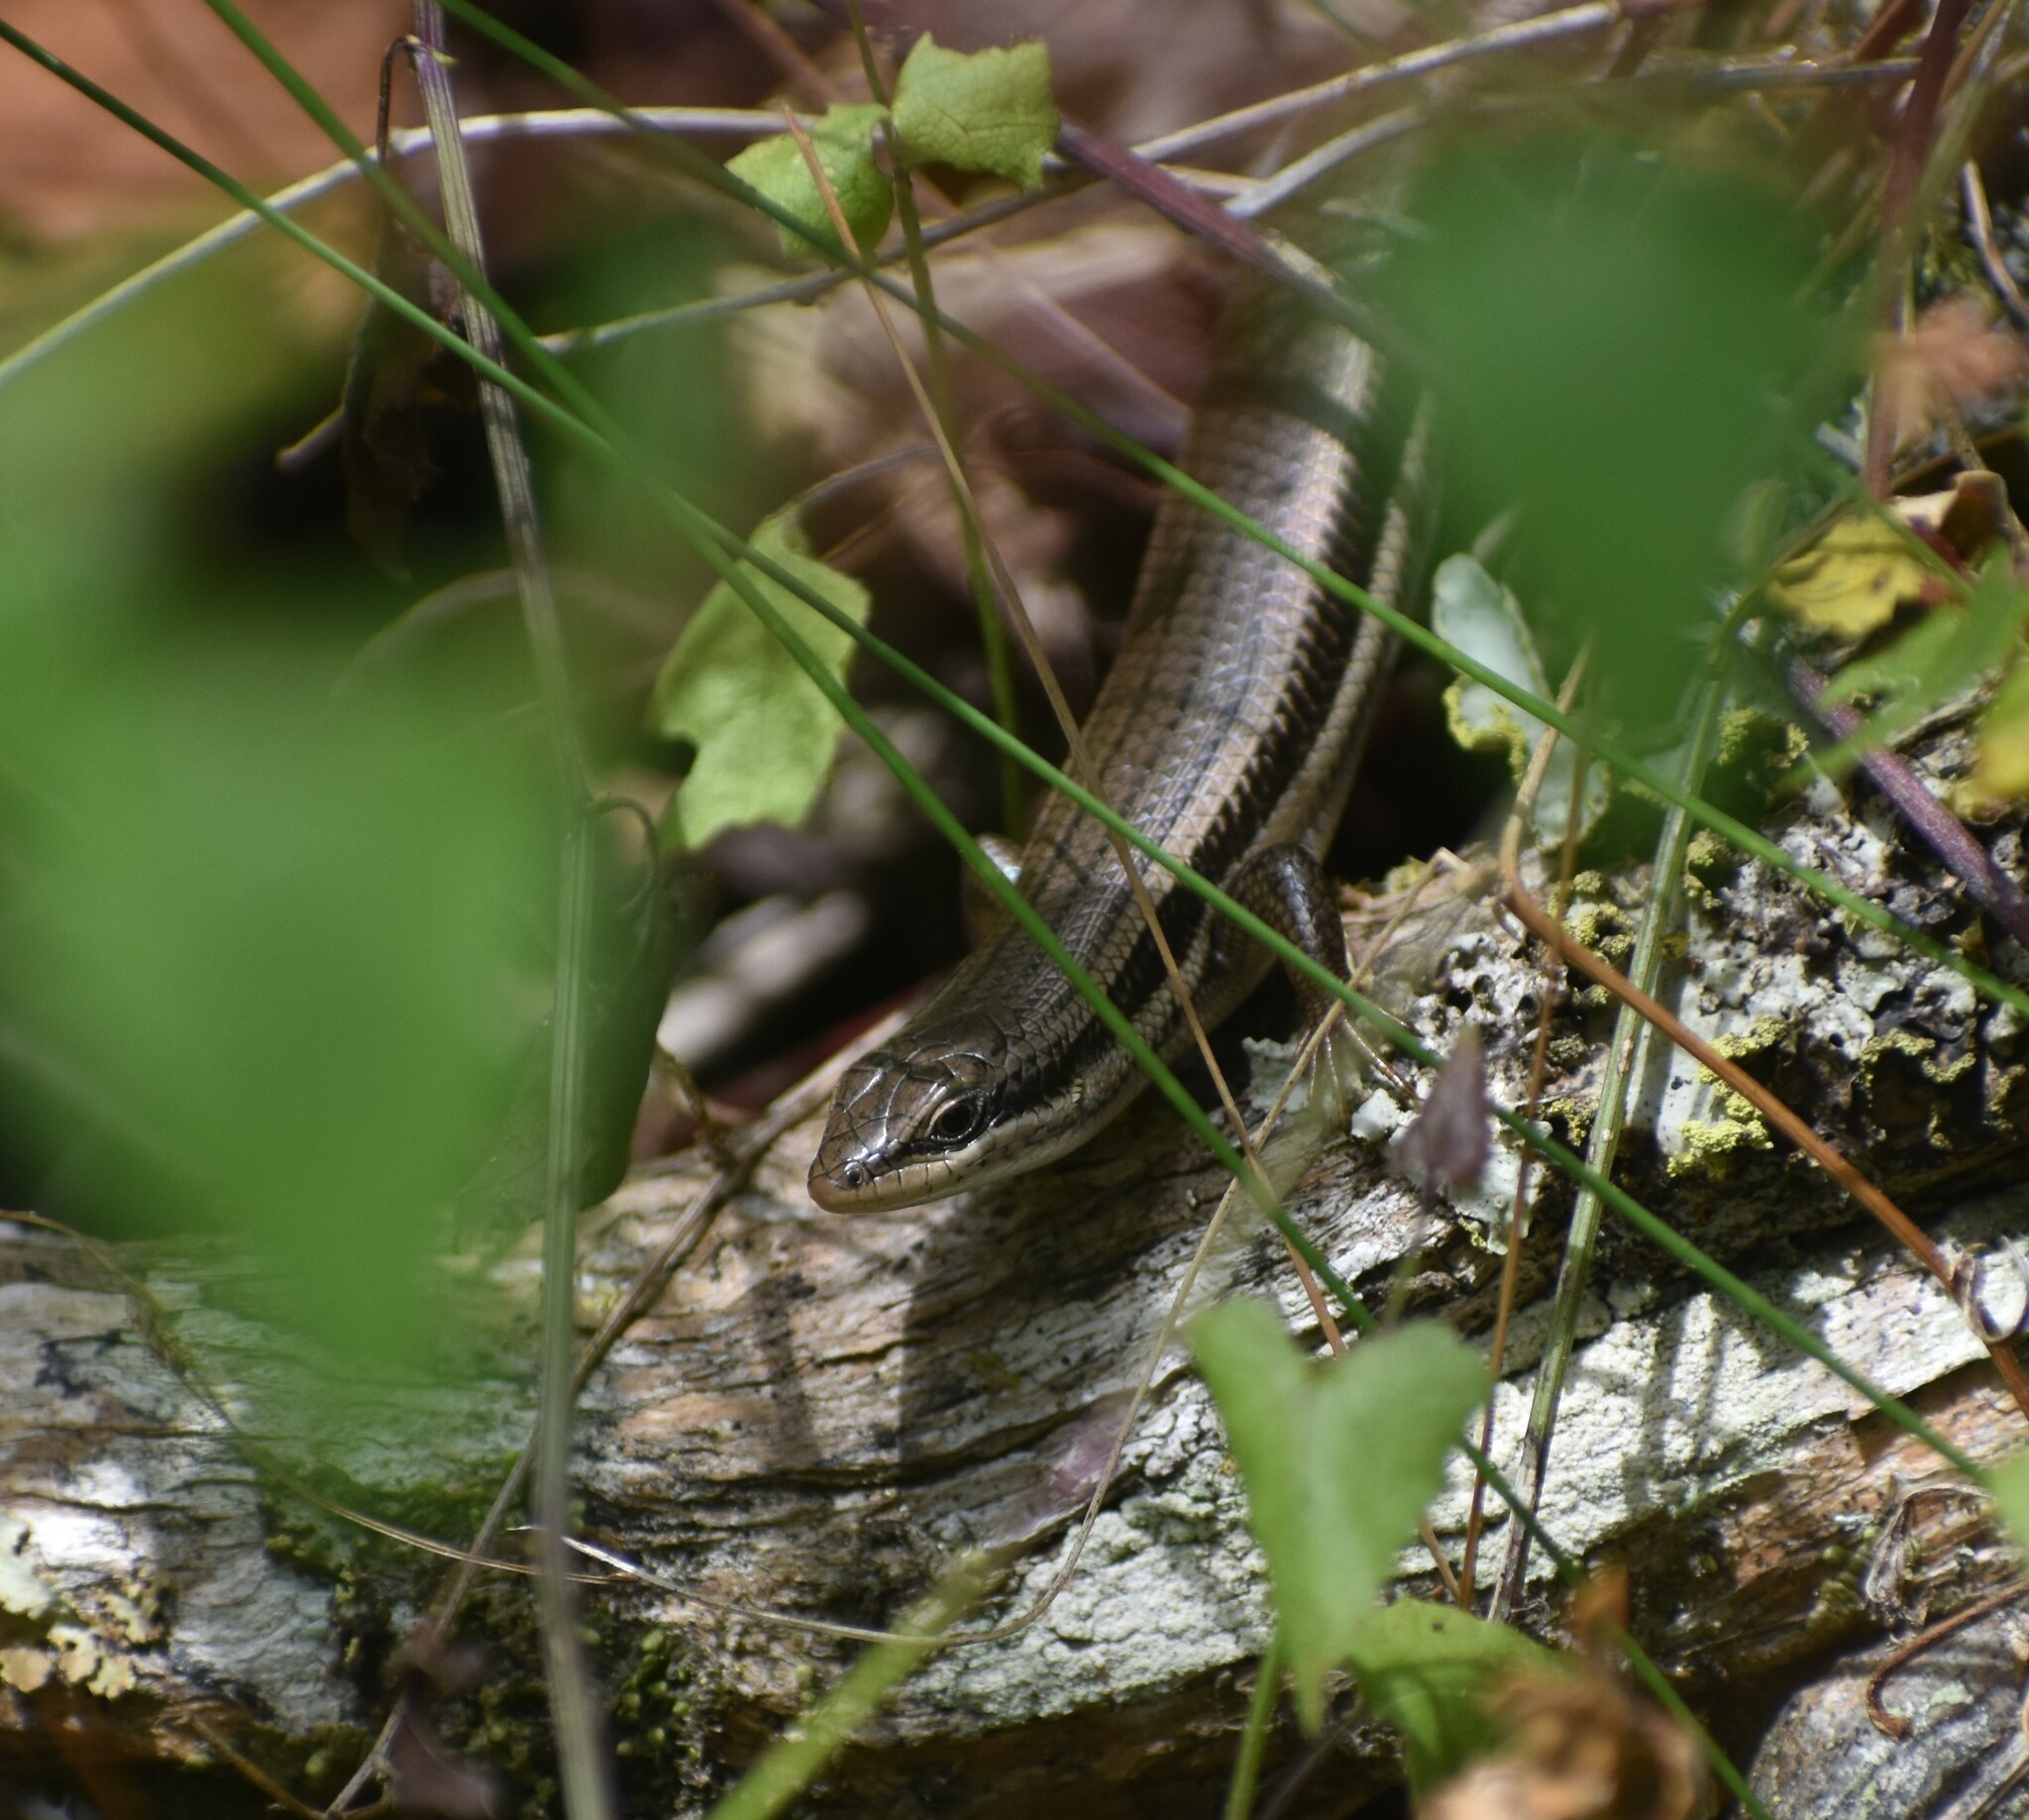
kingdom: Animalia
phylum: Chordata
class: Squamata
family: Scincidae
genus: Trachylepis
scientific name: Trachylepis homalocephala
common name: Red-sided skink
